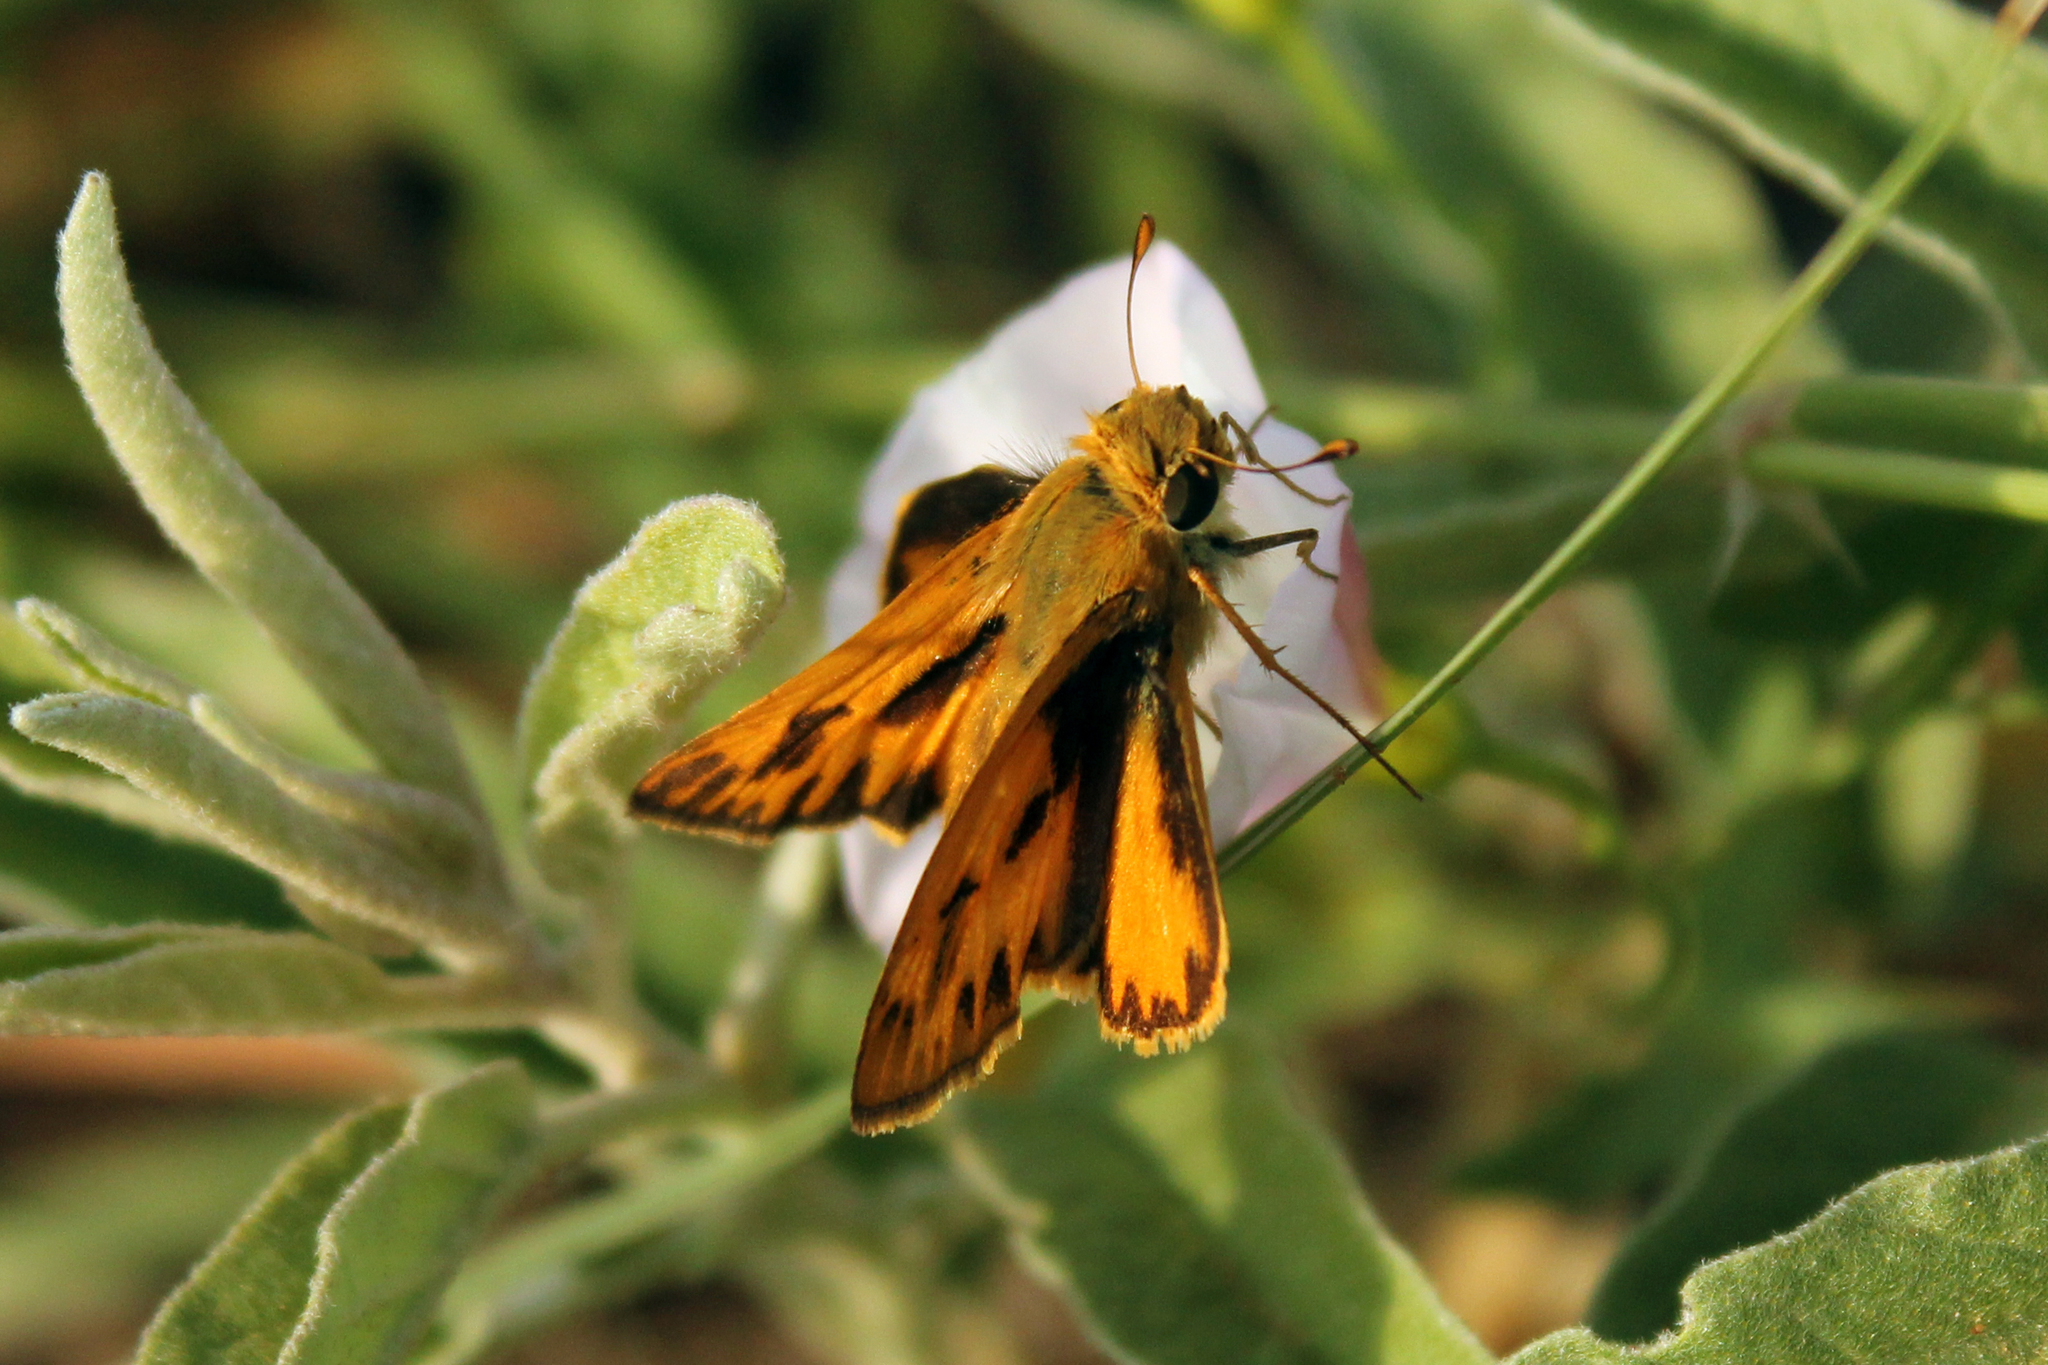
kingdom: Animalia
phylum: Arthropoda
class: Insecta
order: Lepidoptera
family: Hesperiidae
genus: Hylephila
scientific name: Hylephila phyleus
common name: Fiery skipper
